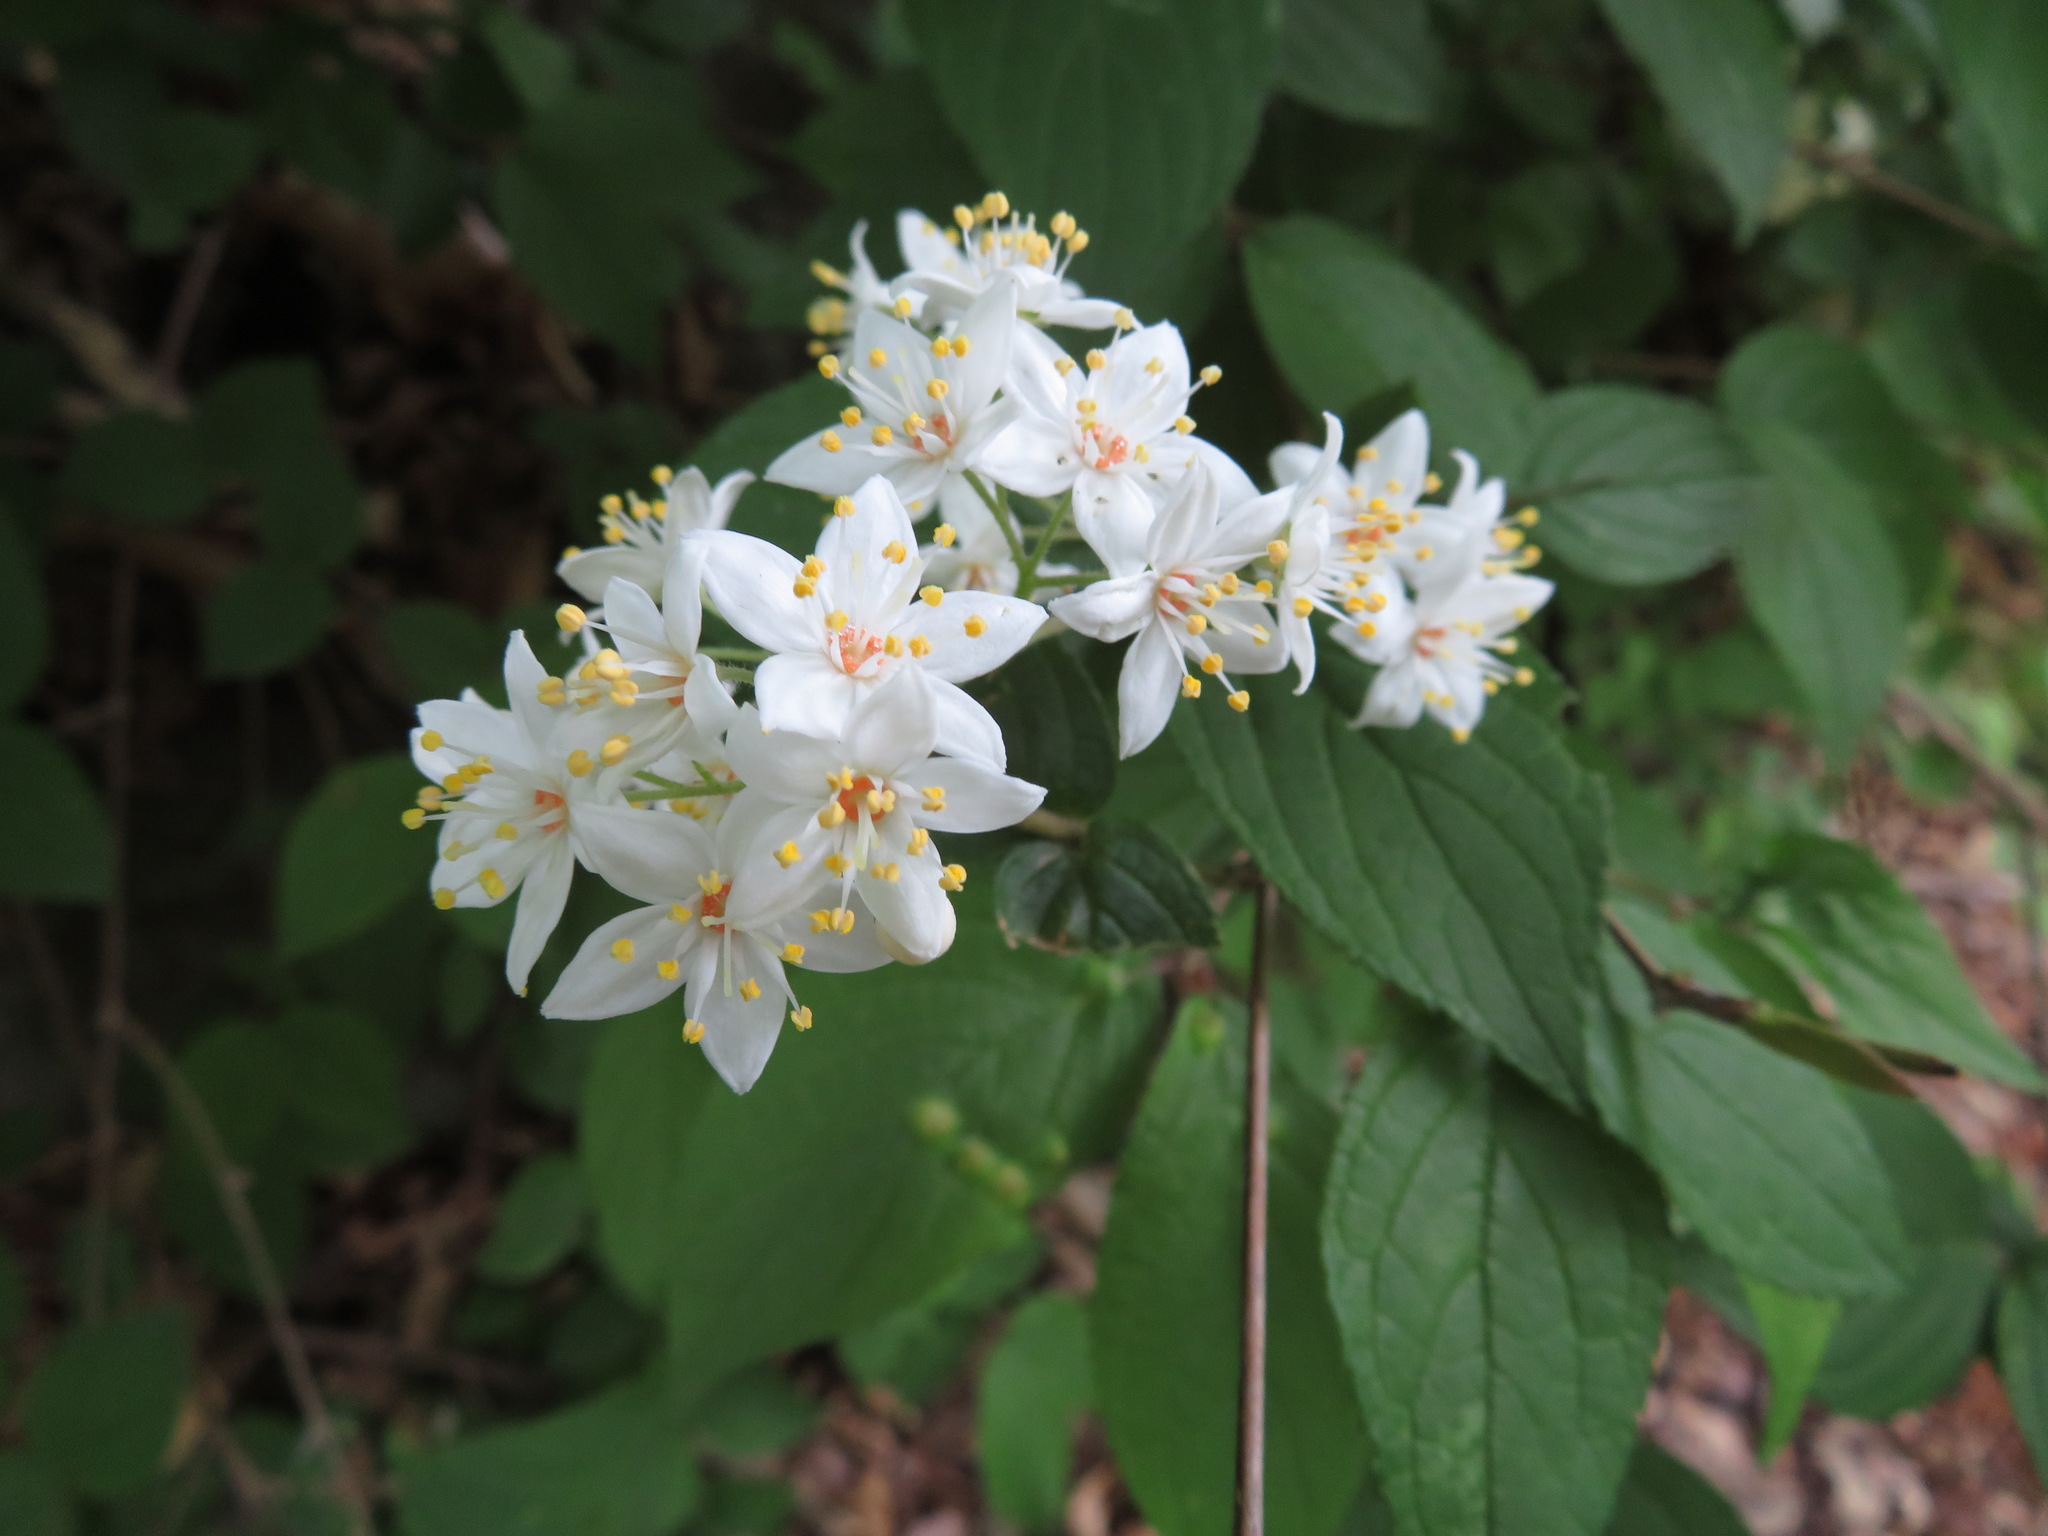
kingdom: Plantae
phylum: Tracheophyta
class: Magnoliopsida
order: Cornales
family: Hydrangeaceae
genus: Deutzia
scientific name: Deutzia scabra
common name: Deutzia
